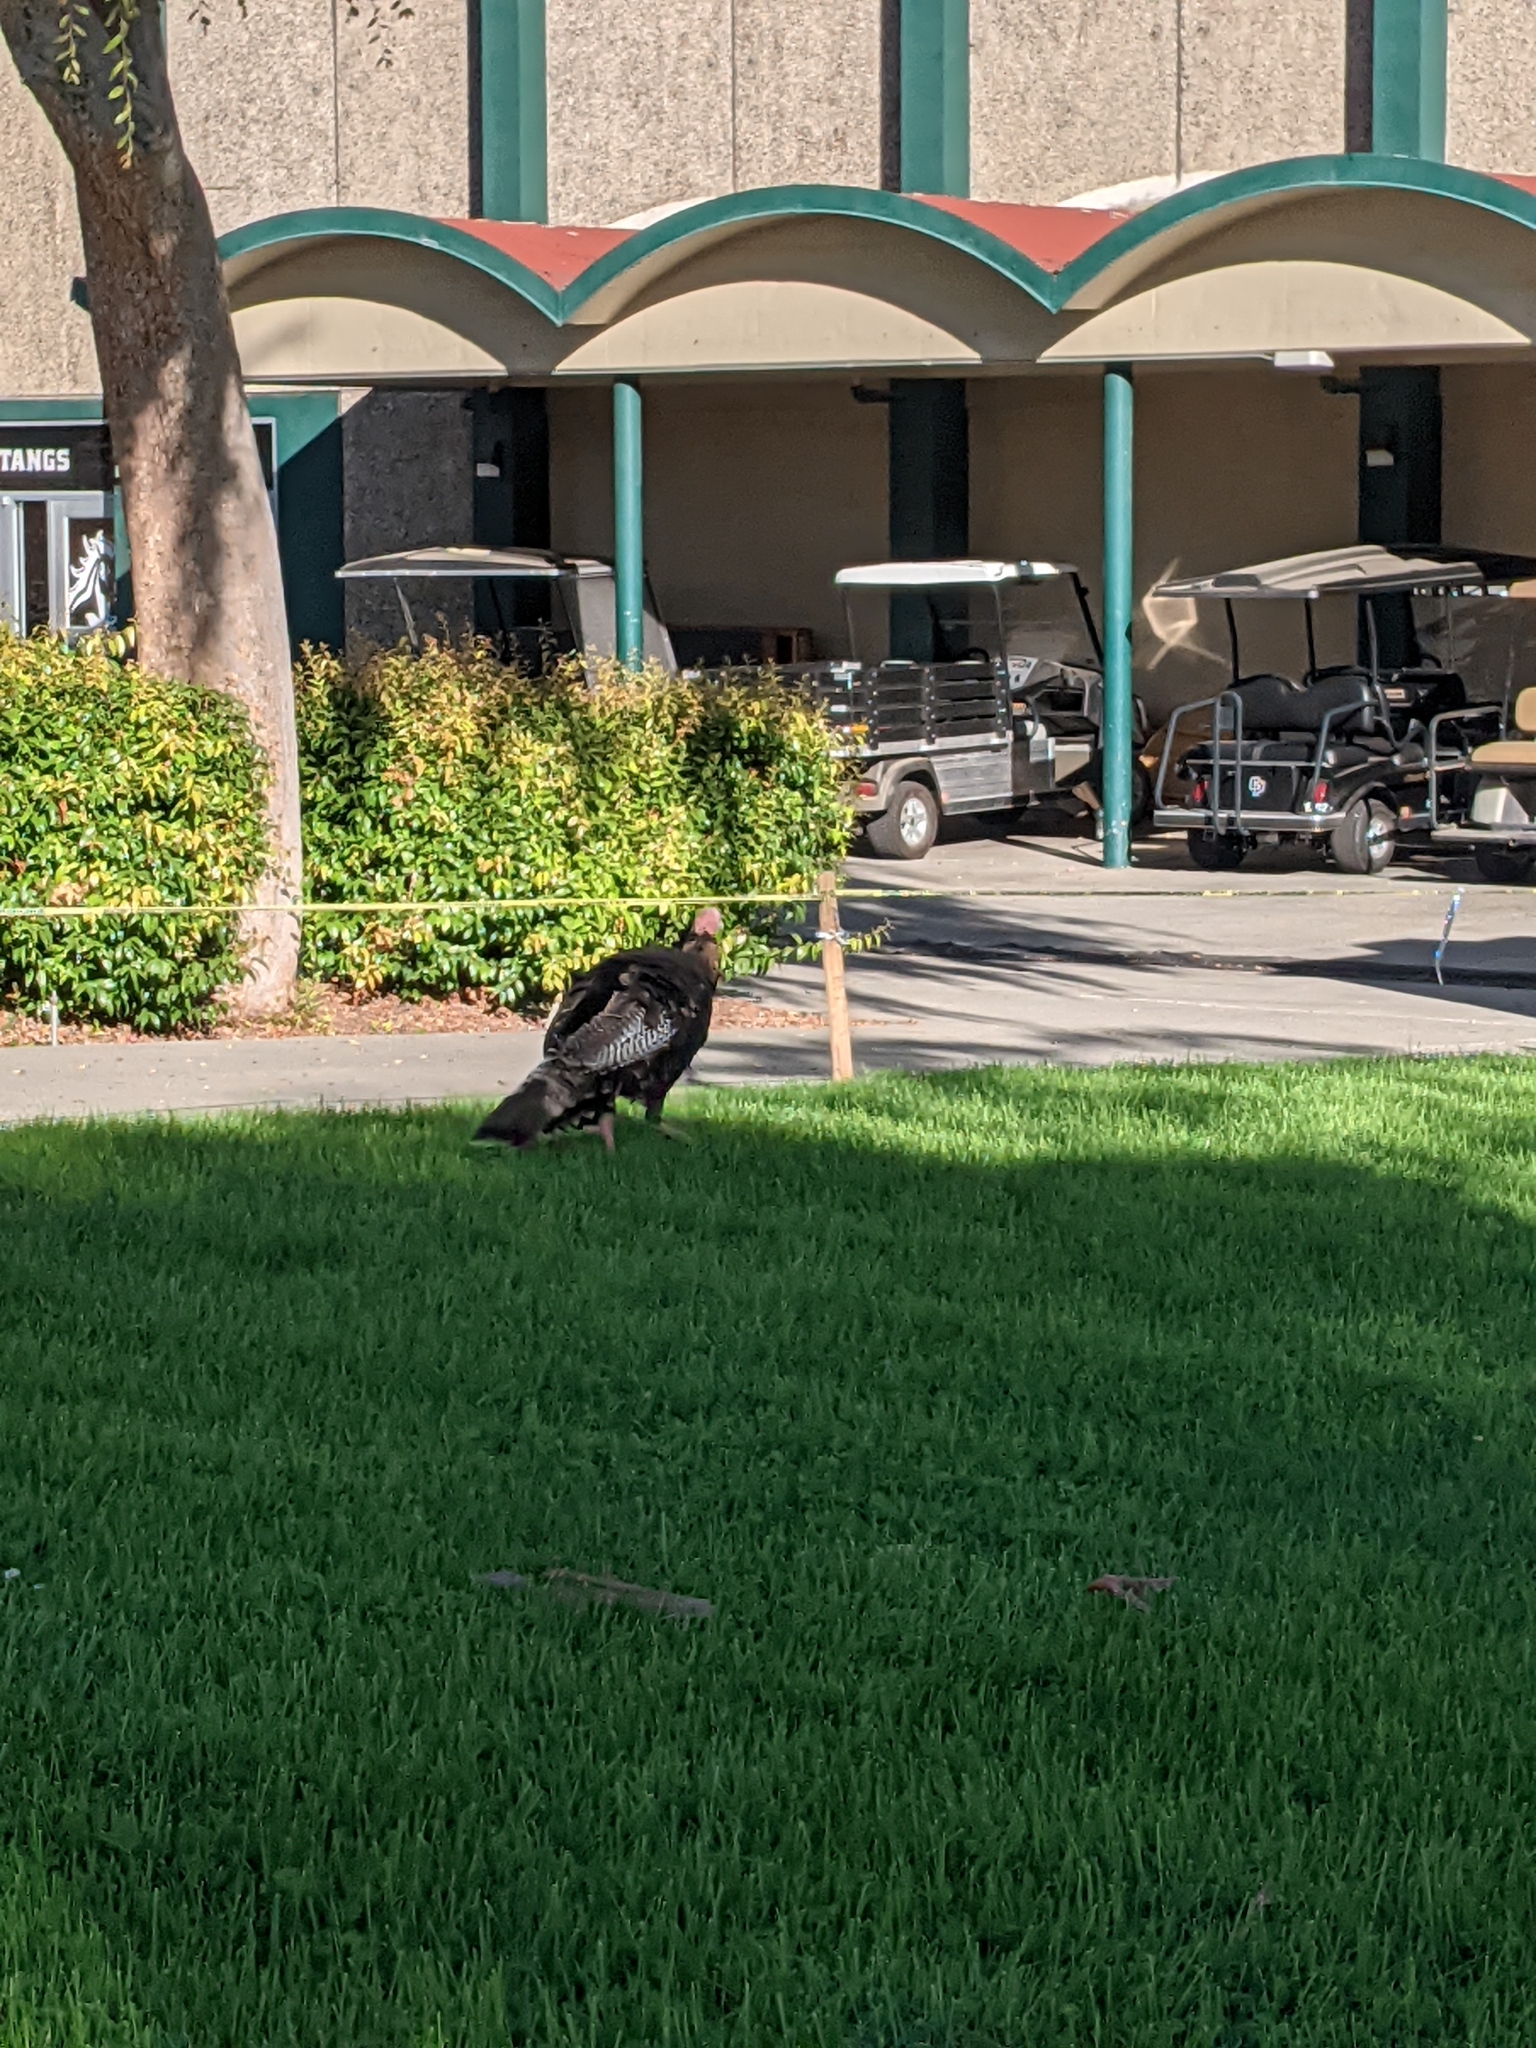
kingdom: Animalia
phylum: Chordata
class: Aves
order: Galliformes
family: Phasianidae
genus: Meleagris
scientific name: Meleagris gallopavo
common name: Wild turkey
